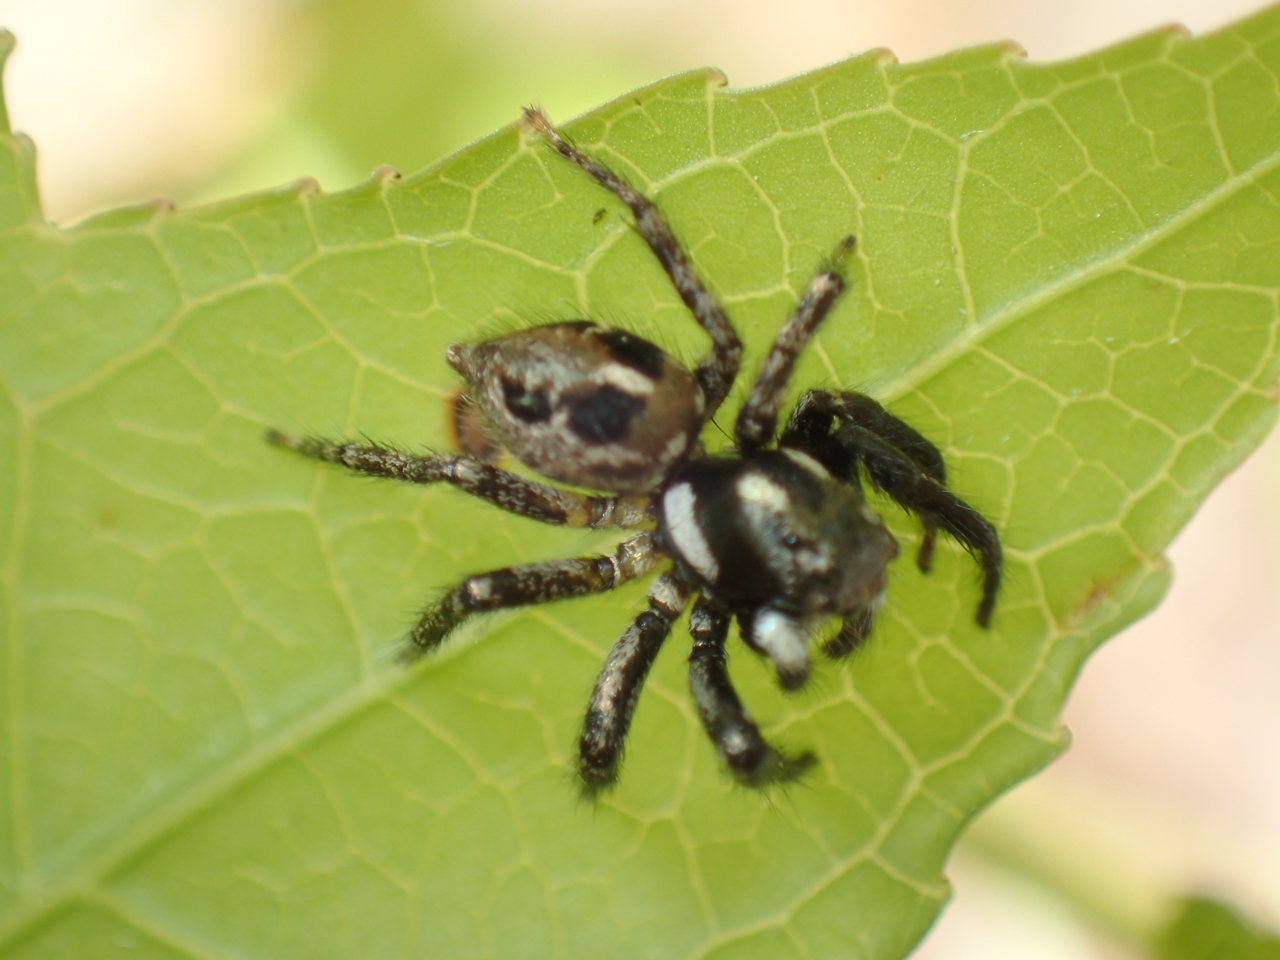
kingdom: Animalia
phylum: Arthropoda
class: Arachnida
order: Araneae
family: Salticidae
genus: Anasaitis
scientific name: Anasaitis canosa
